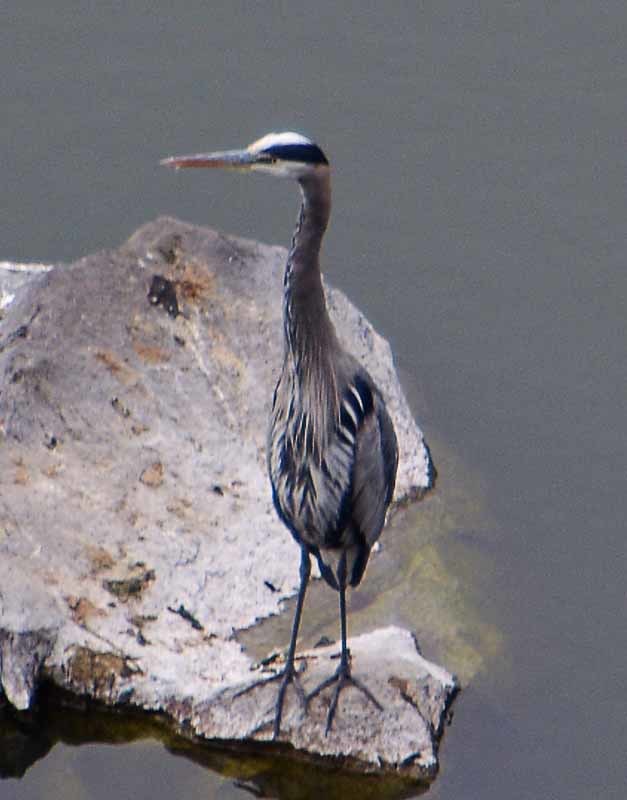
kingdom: Animalia
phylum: Chordata
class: Aves
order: Pelecaniformes
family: Ardeidae
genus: Ardea
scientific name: Ardea herodias
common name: Great blue heron
